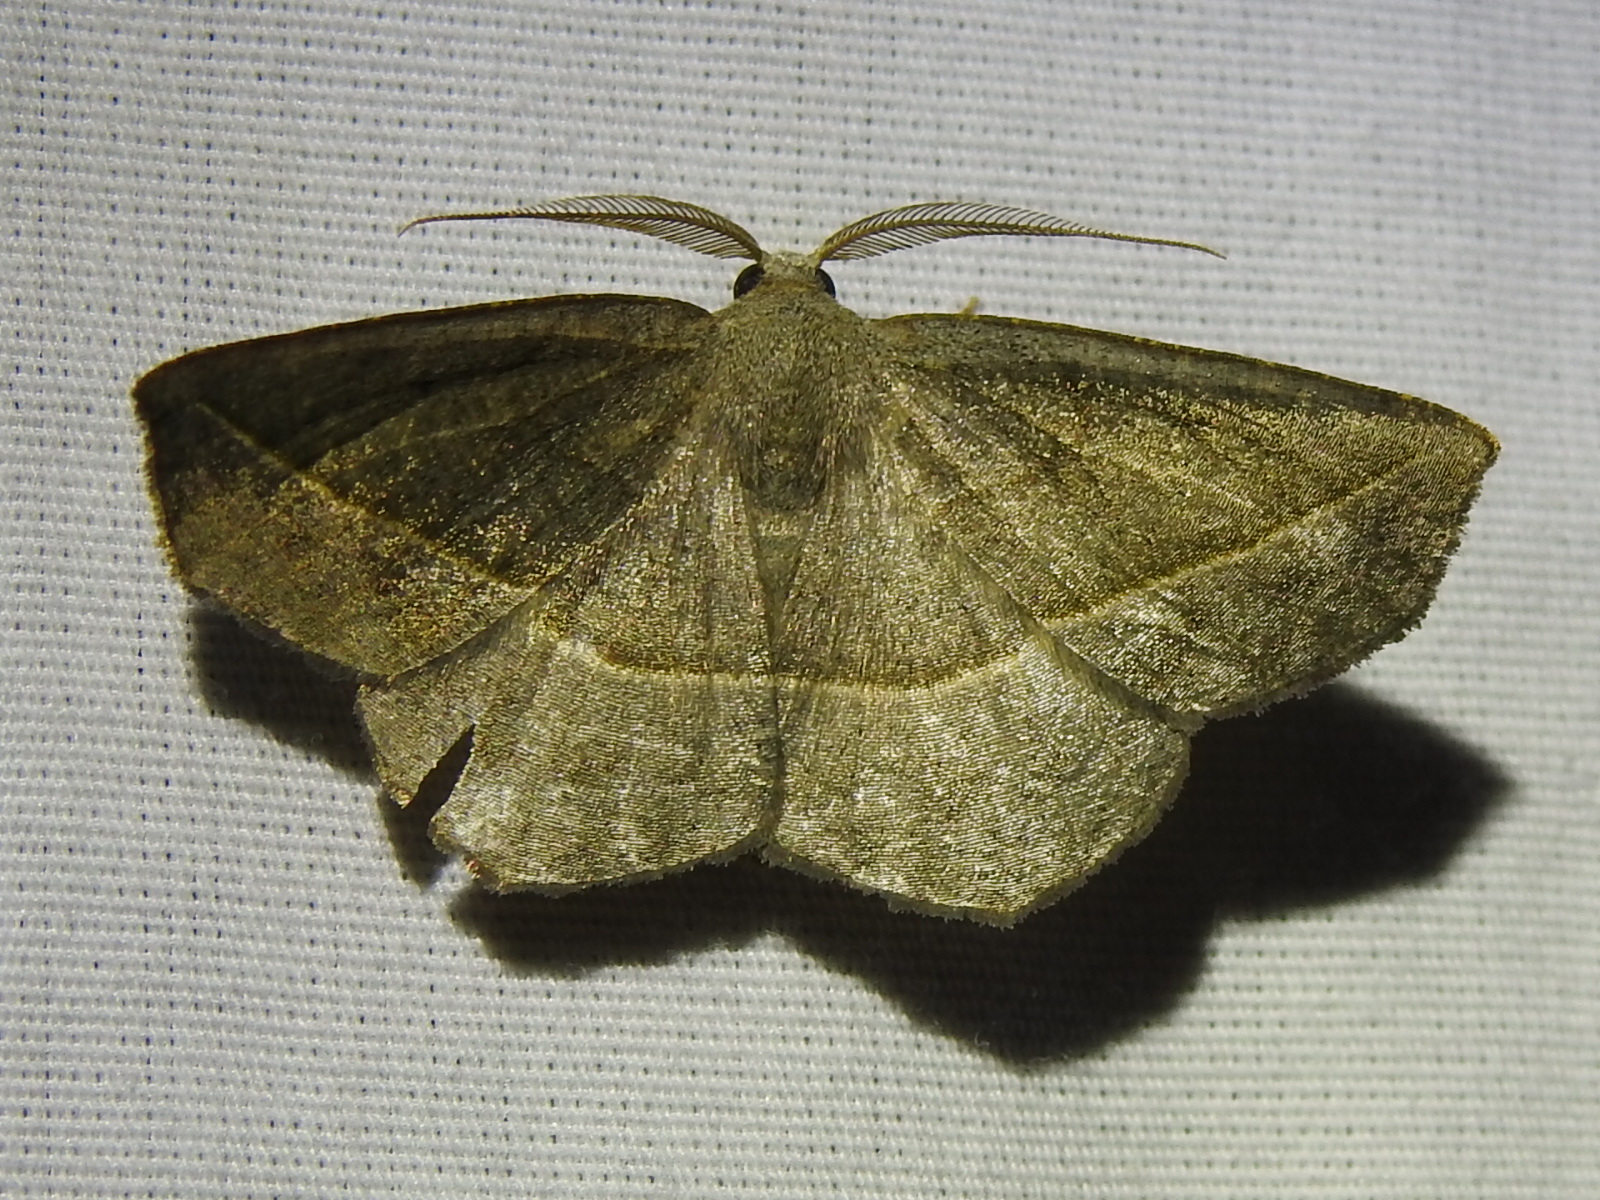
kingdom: Animalia
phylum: Arthropoda
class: Insecta
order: Lepidoptera
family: Geometridae
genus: Eusarca
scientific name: Eusarca subflavaria
